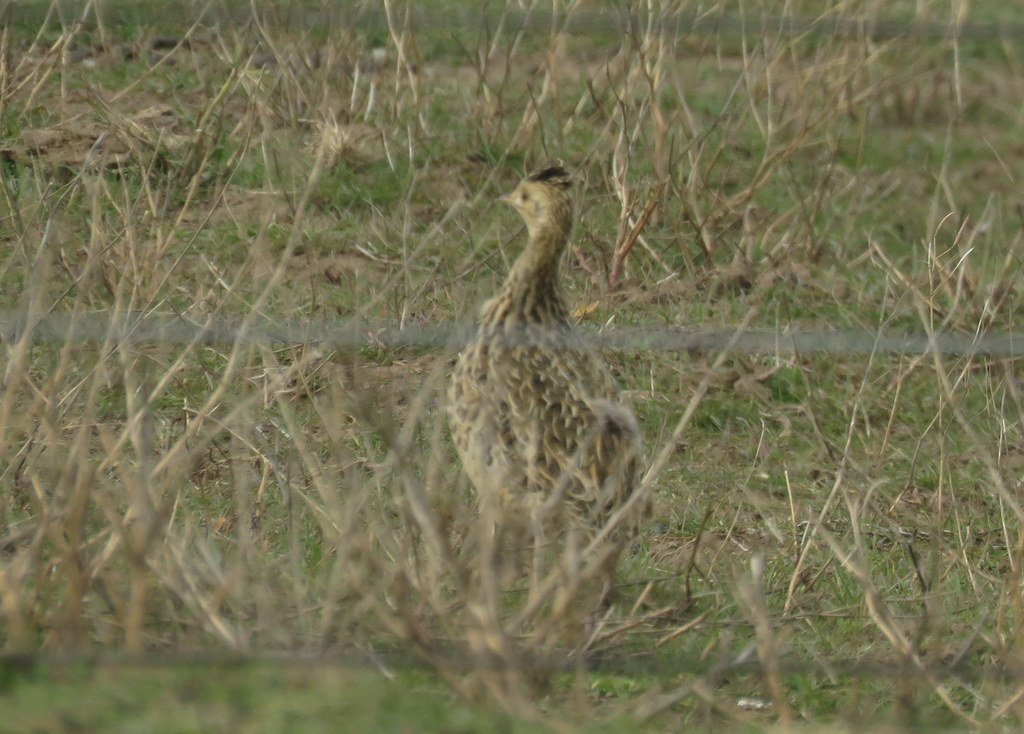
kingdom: Animalia
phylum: Chordata
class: Aves
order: Tinamiformes
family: Tinamidae
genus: Nothura
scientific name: Nothura maculosa
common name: Spotted nothura
